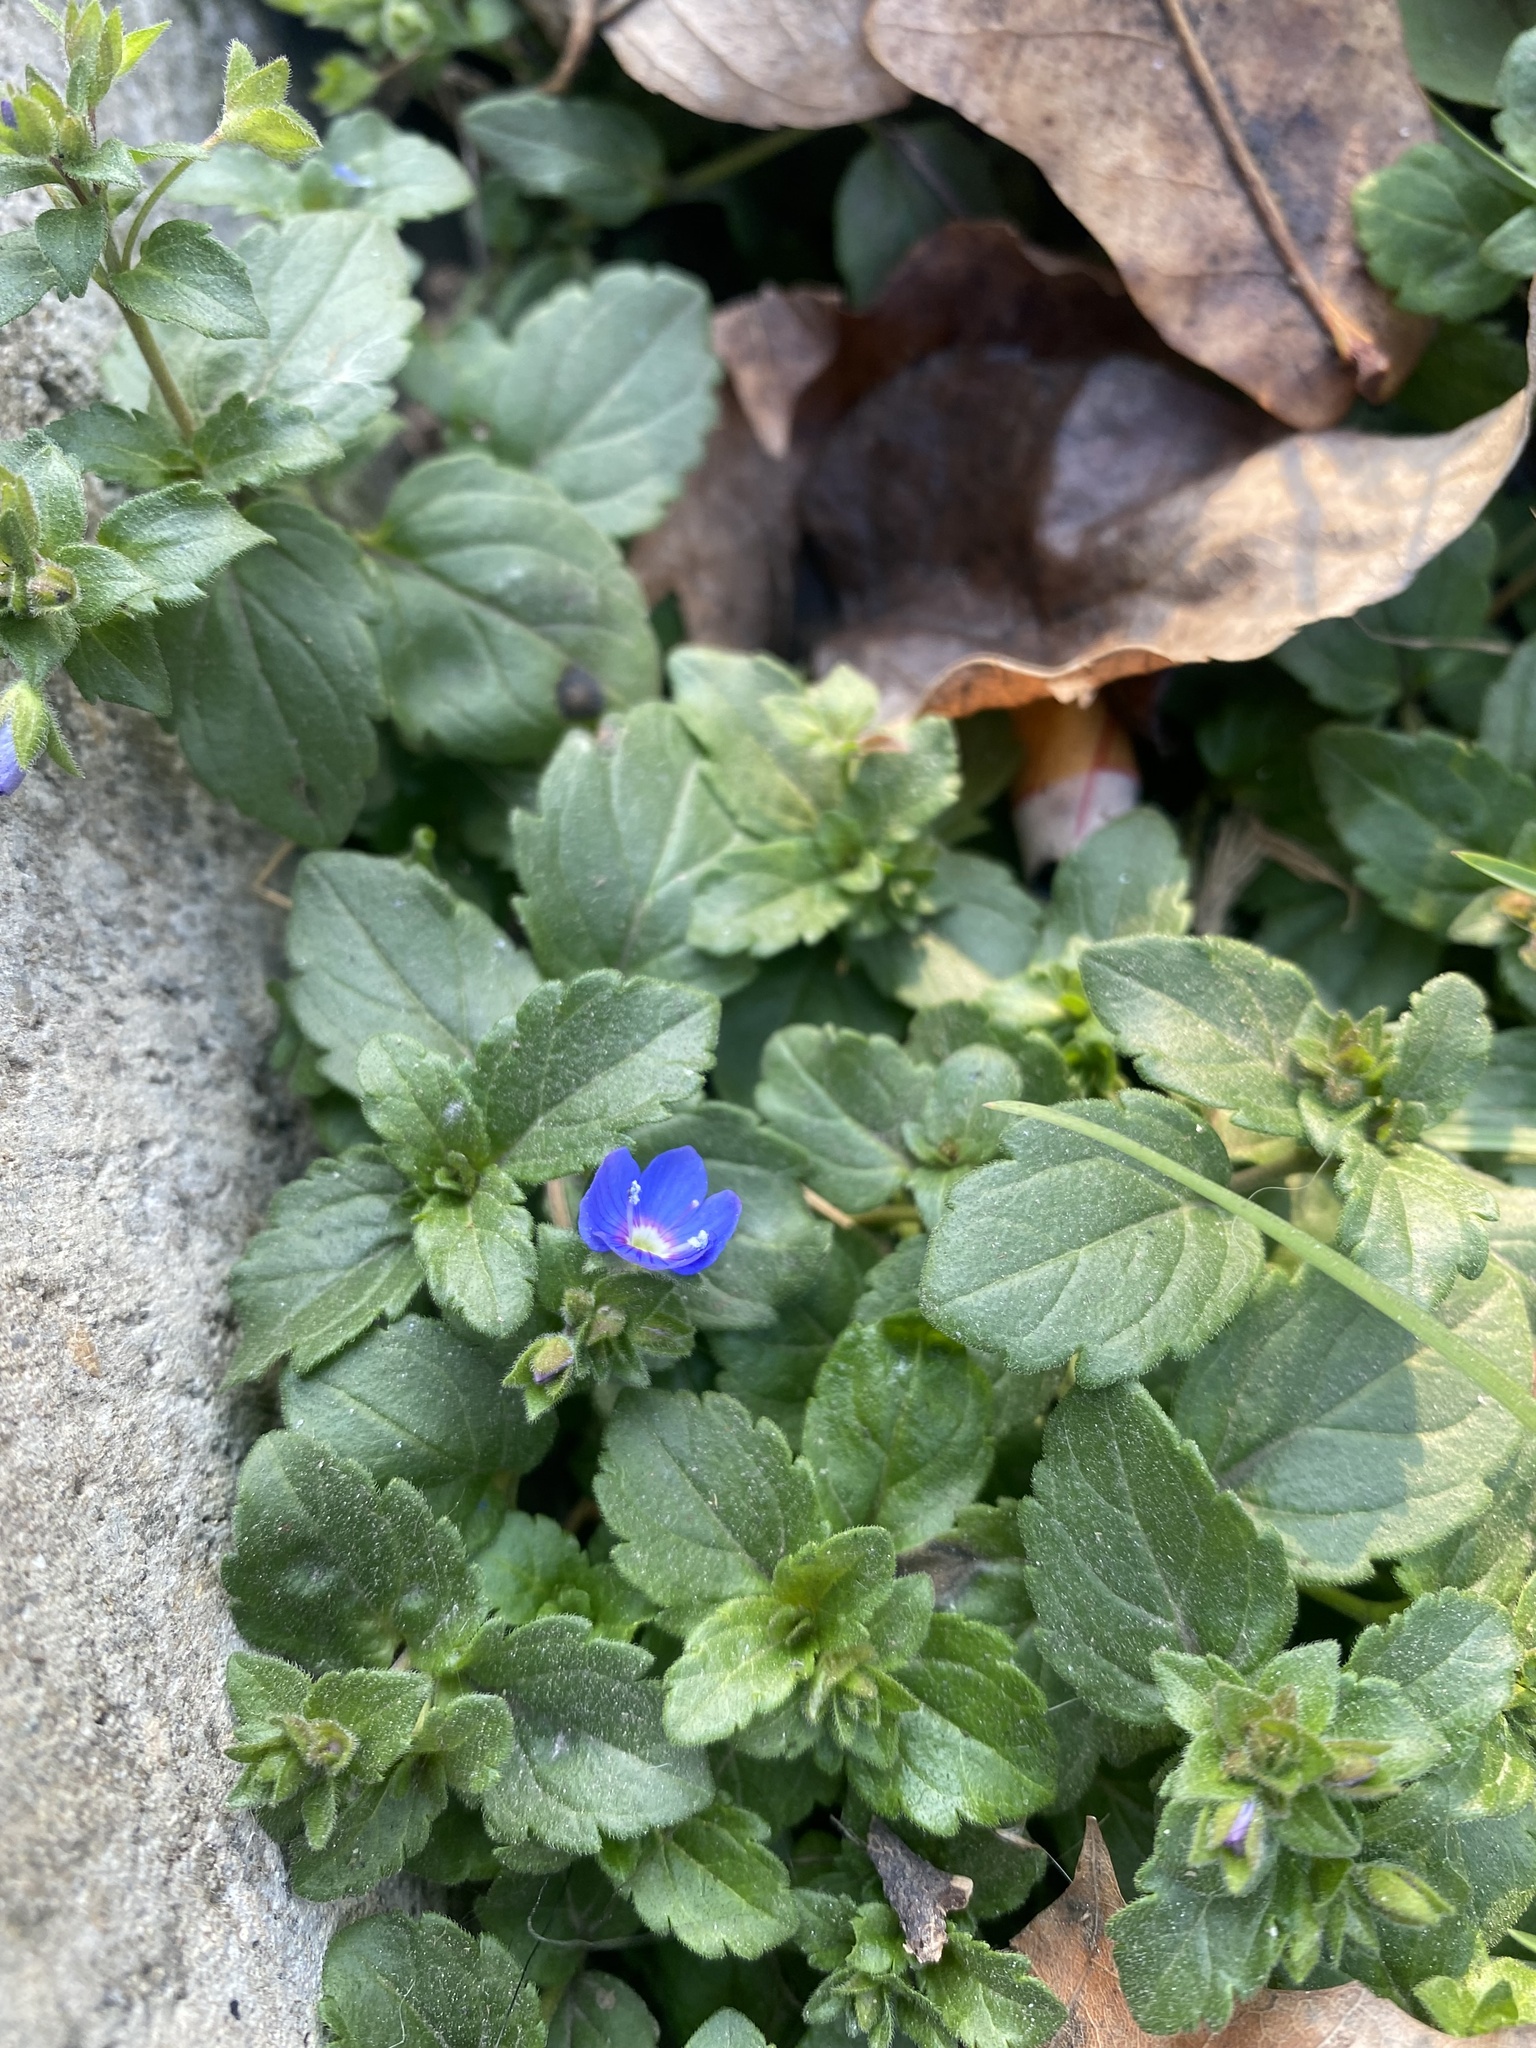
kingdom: Plantae
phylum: Tracheophyta
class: Magnoliopsida
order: Lamiales
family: Plantaginaceae
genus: Veronica
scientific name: Veronica
